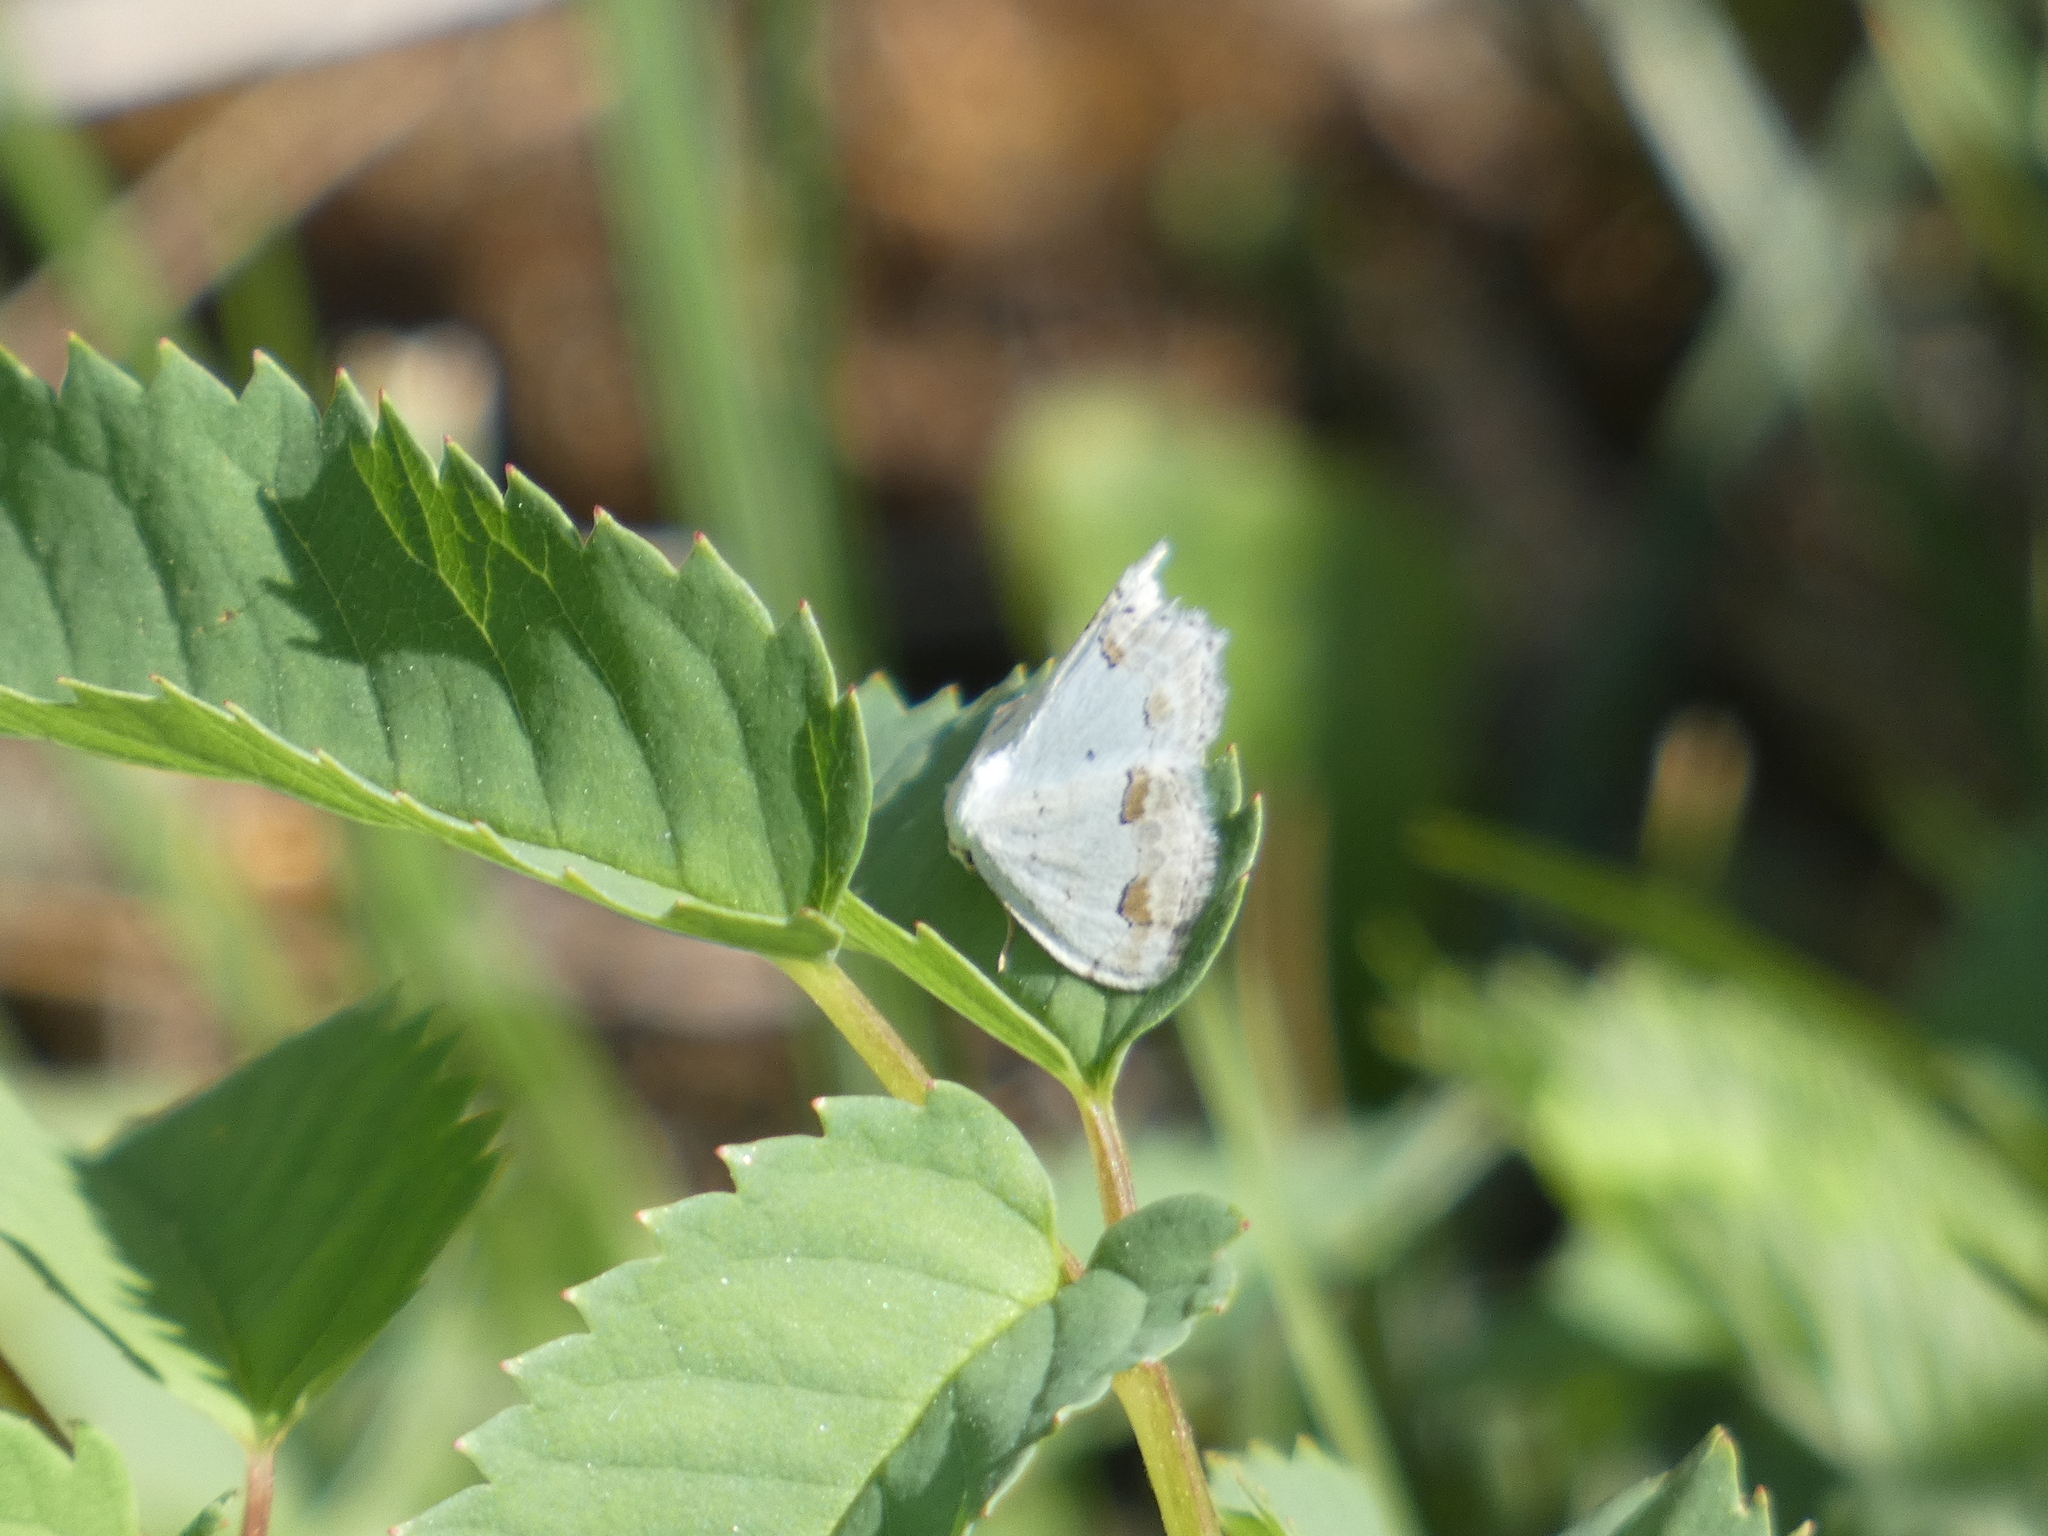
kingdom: Animalia
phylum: Arthropoda
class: Insecta
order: Lepidoptera
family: Geometridae
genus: Scopula
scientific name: Scopula ornata
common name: Lace border
